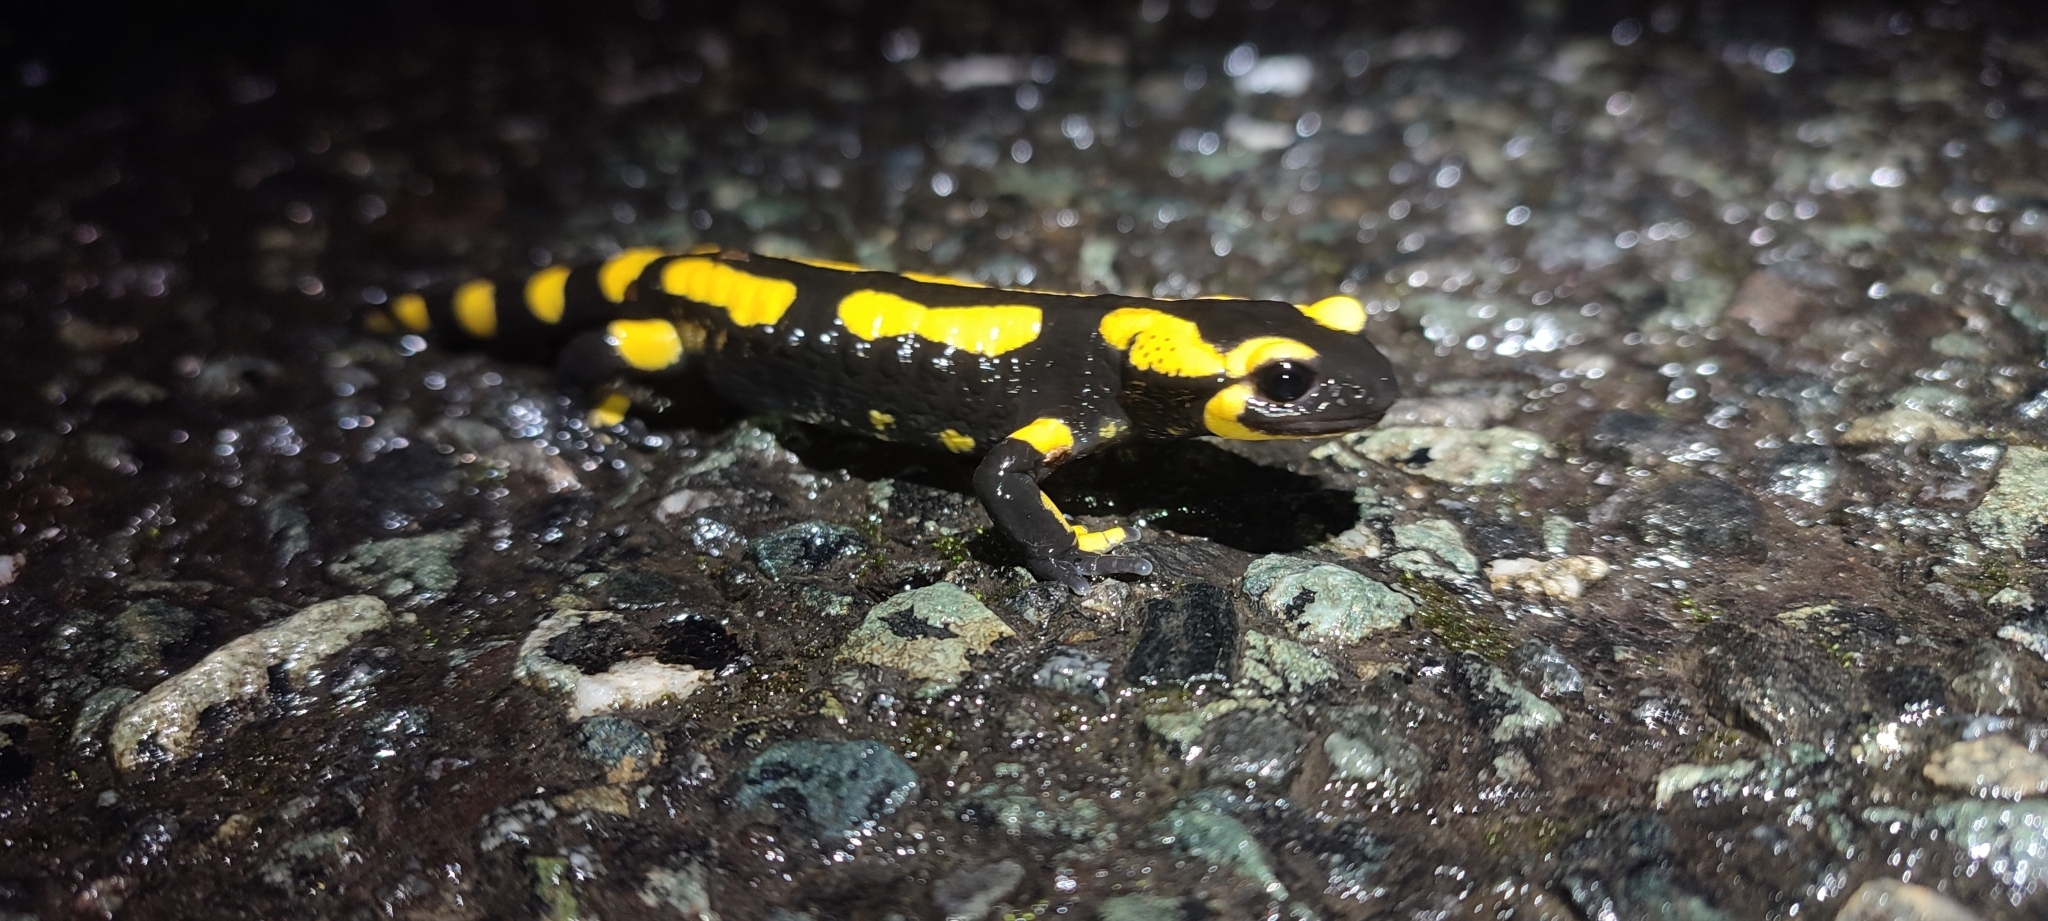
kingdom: Animalia
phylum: Chordata
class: Amphibia
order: Caudata
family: Salamandridae
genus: Salamandra
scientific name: Salamandra salamandra
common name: Fire salamander
